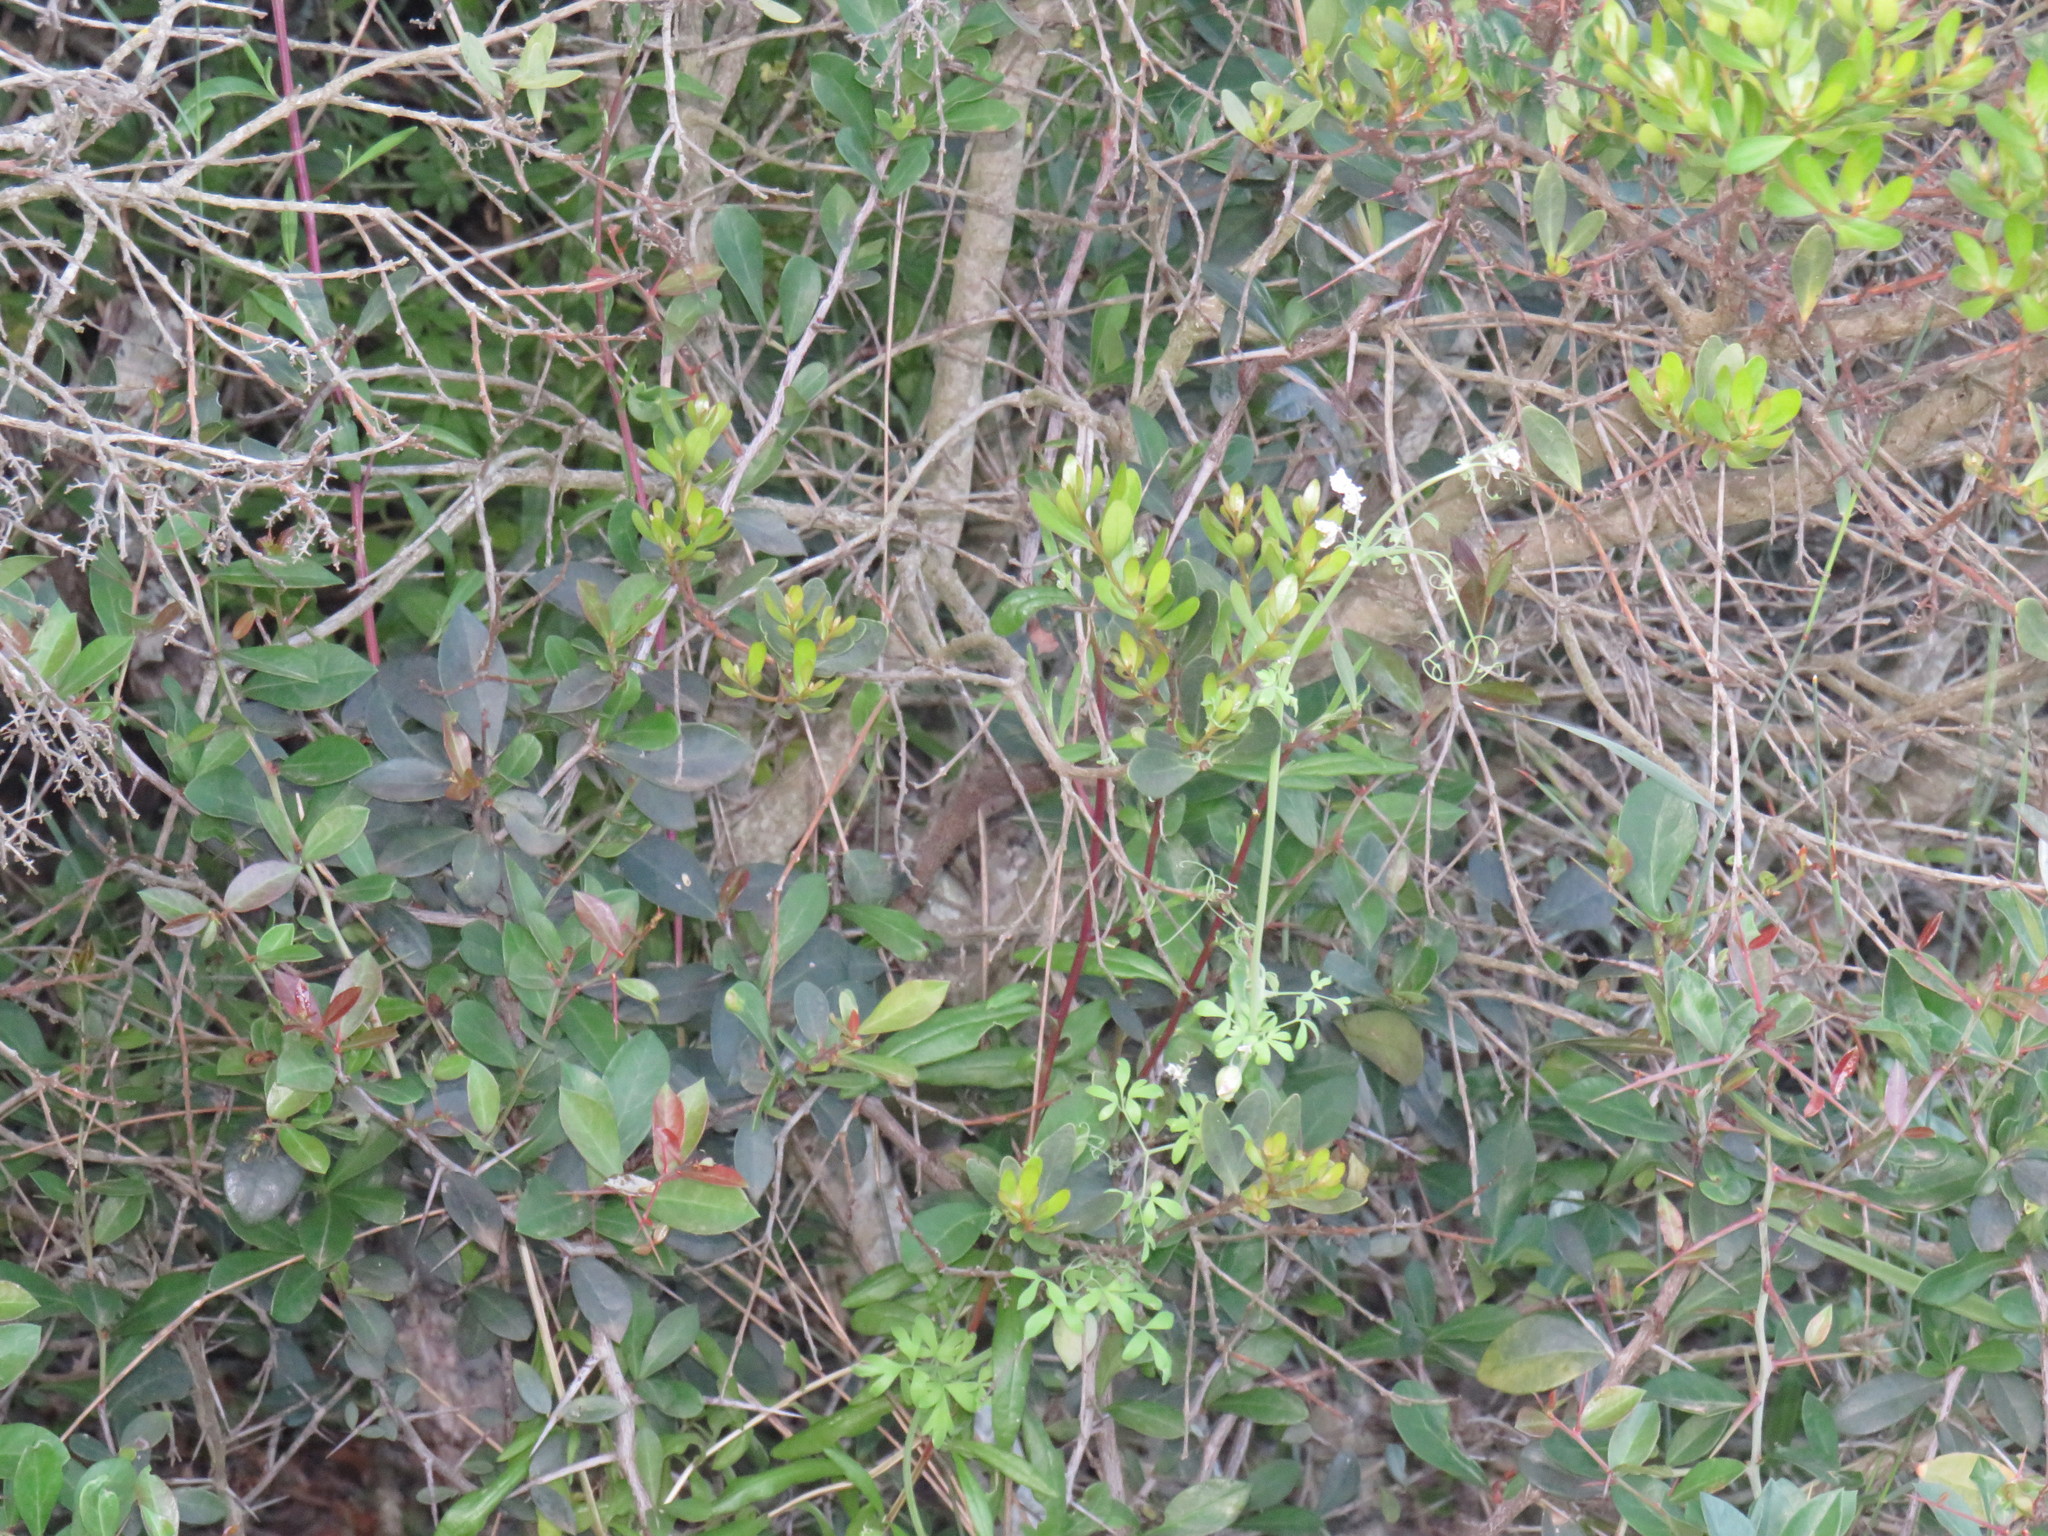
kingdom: Plantae
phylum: Tracheophyta
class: Magnoliopsida
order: Ranunculales
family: Papaveraceae
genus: Cysticapnos
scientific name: Cysticapnos vesicaria
